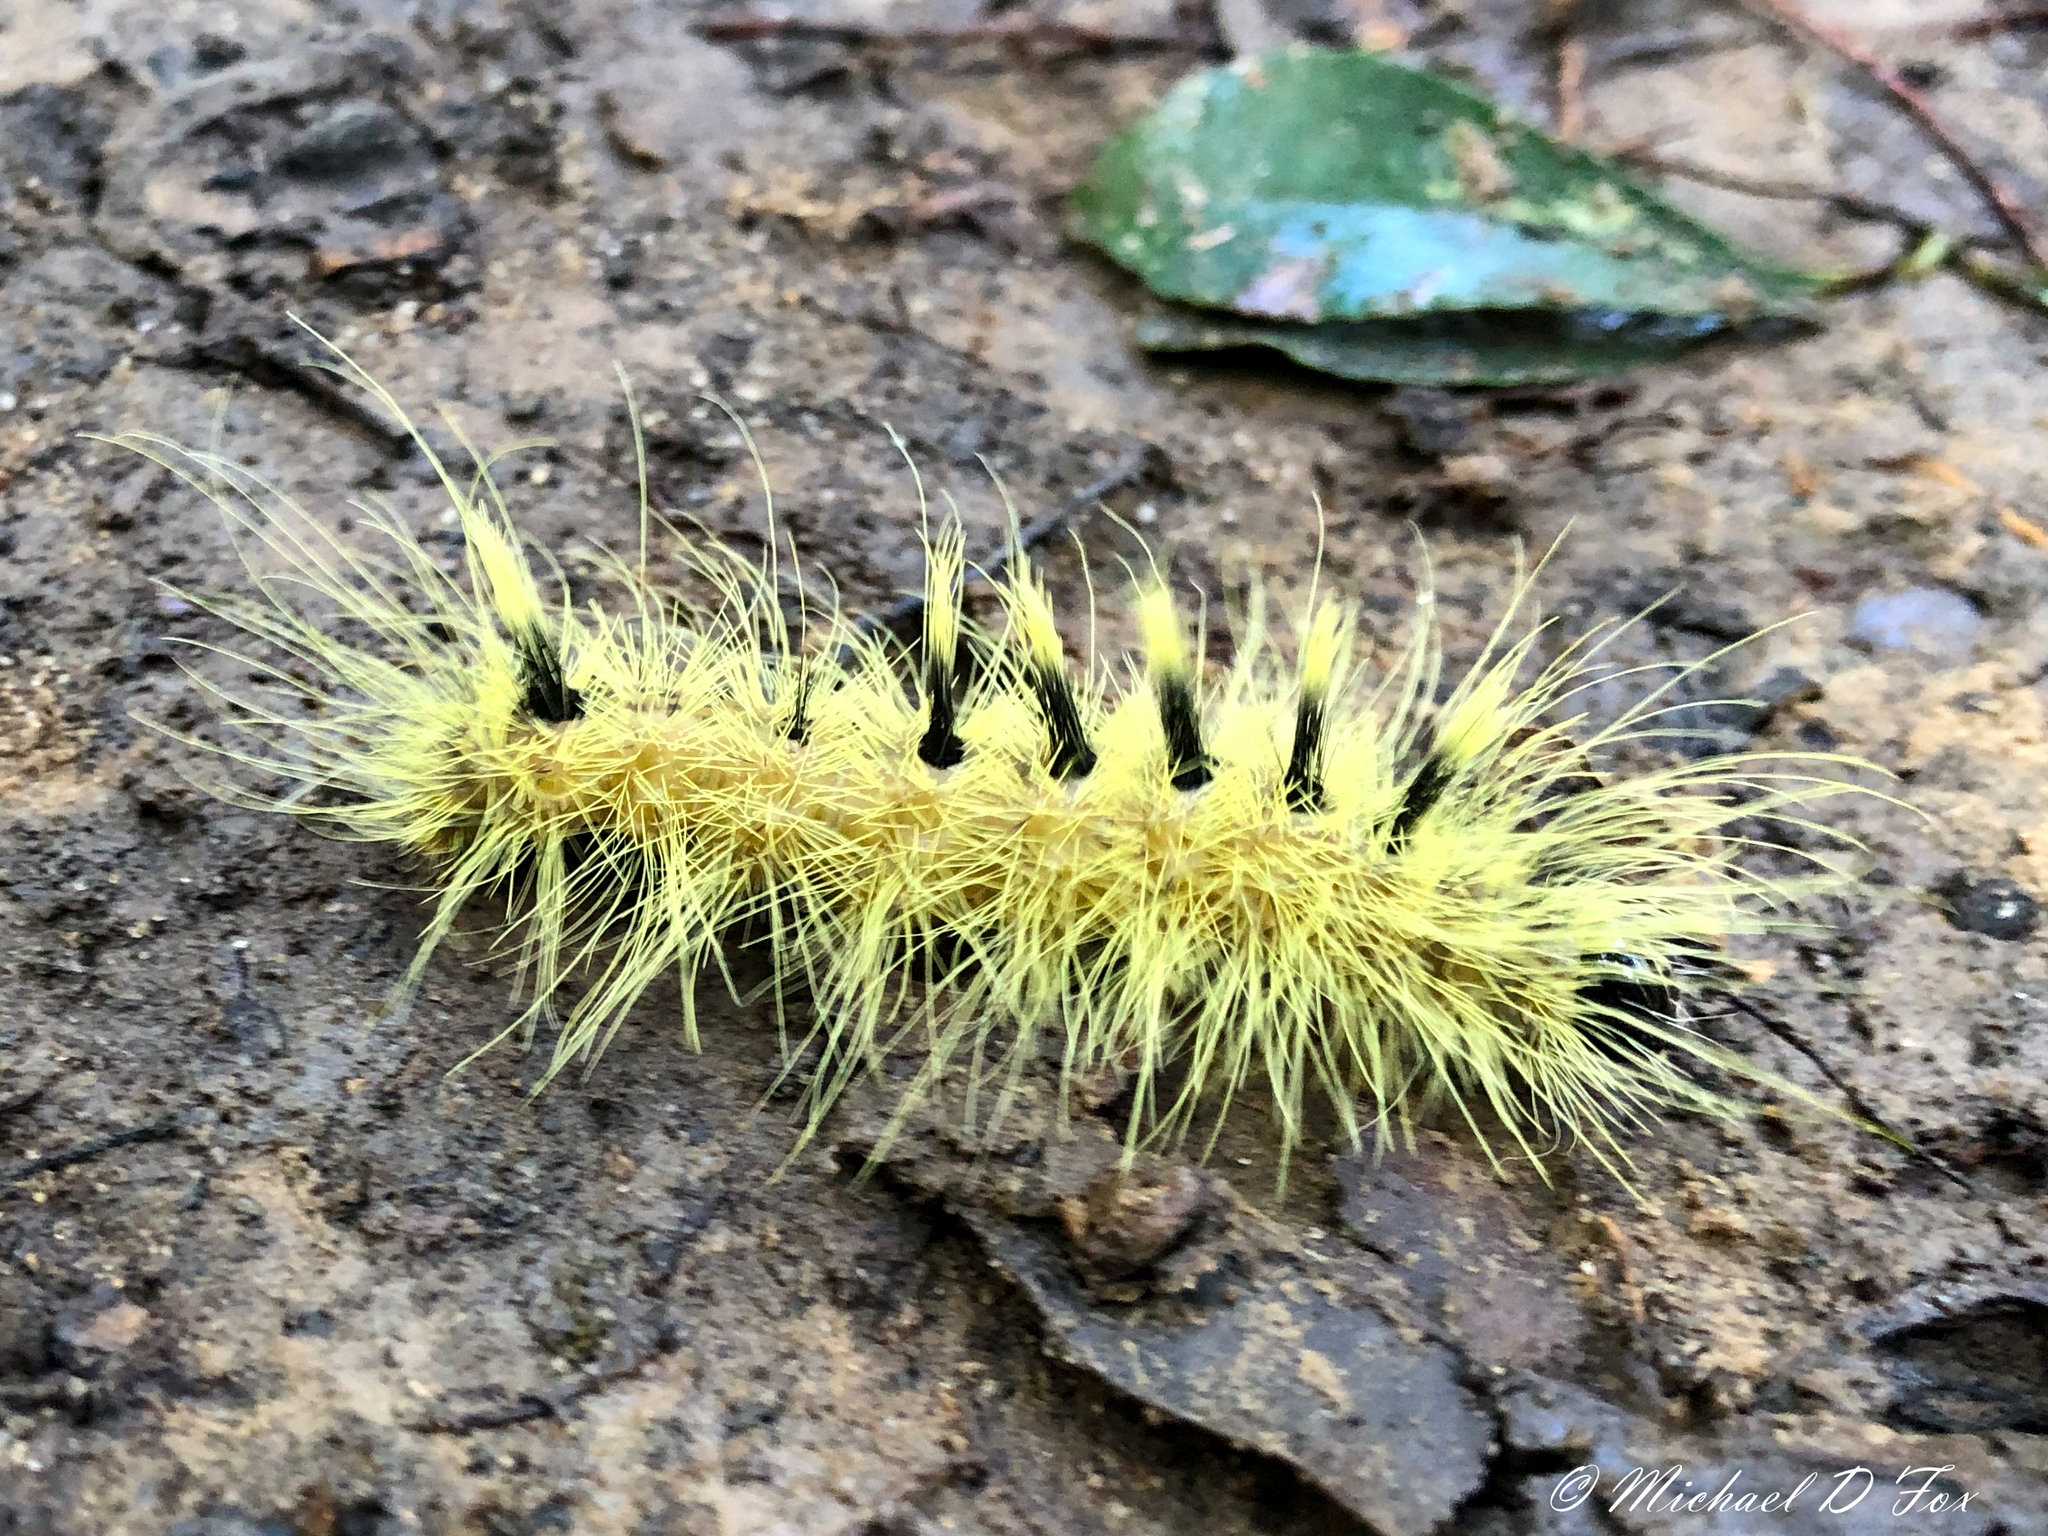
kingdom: Animalia
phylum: Arthropoda
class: Insecta
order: Lepidoptera
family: Noctuidae
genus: Acronicta
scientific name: Acronicta rubricoma
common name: Hackberry dagger
